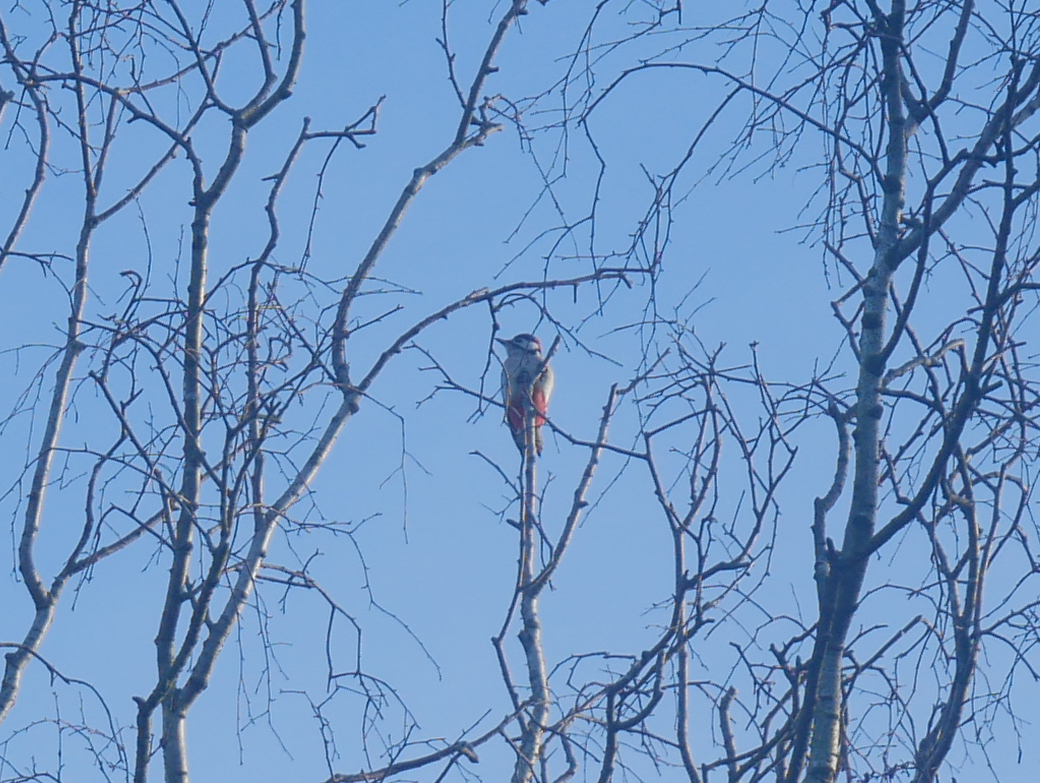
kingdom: Animalia
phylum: Chordata
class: Aves
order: Piciformes
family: Picidae
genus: Dendrocopos
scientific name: Dendrocopos major
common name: Great spotted woodpecker
